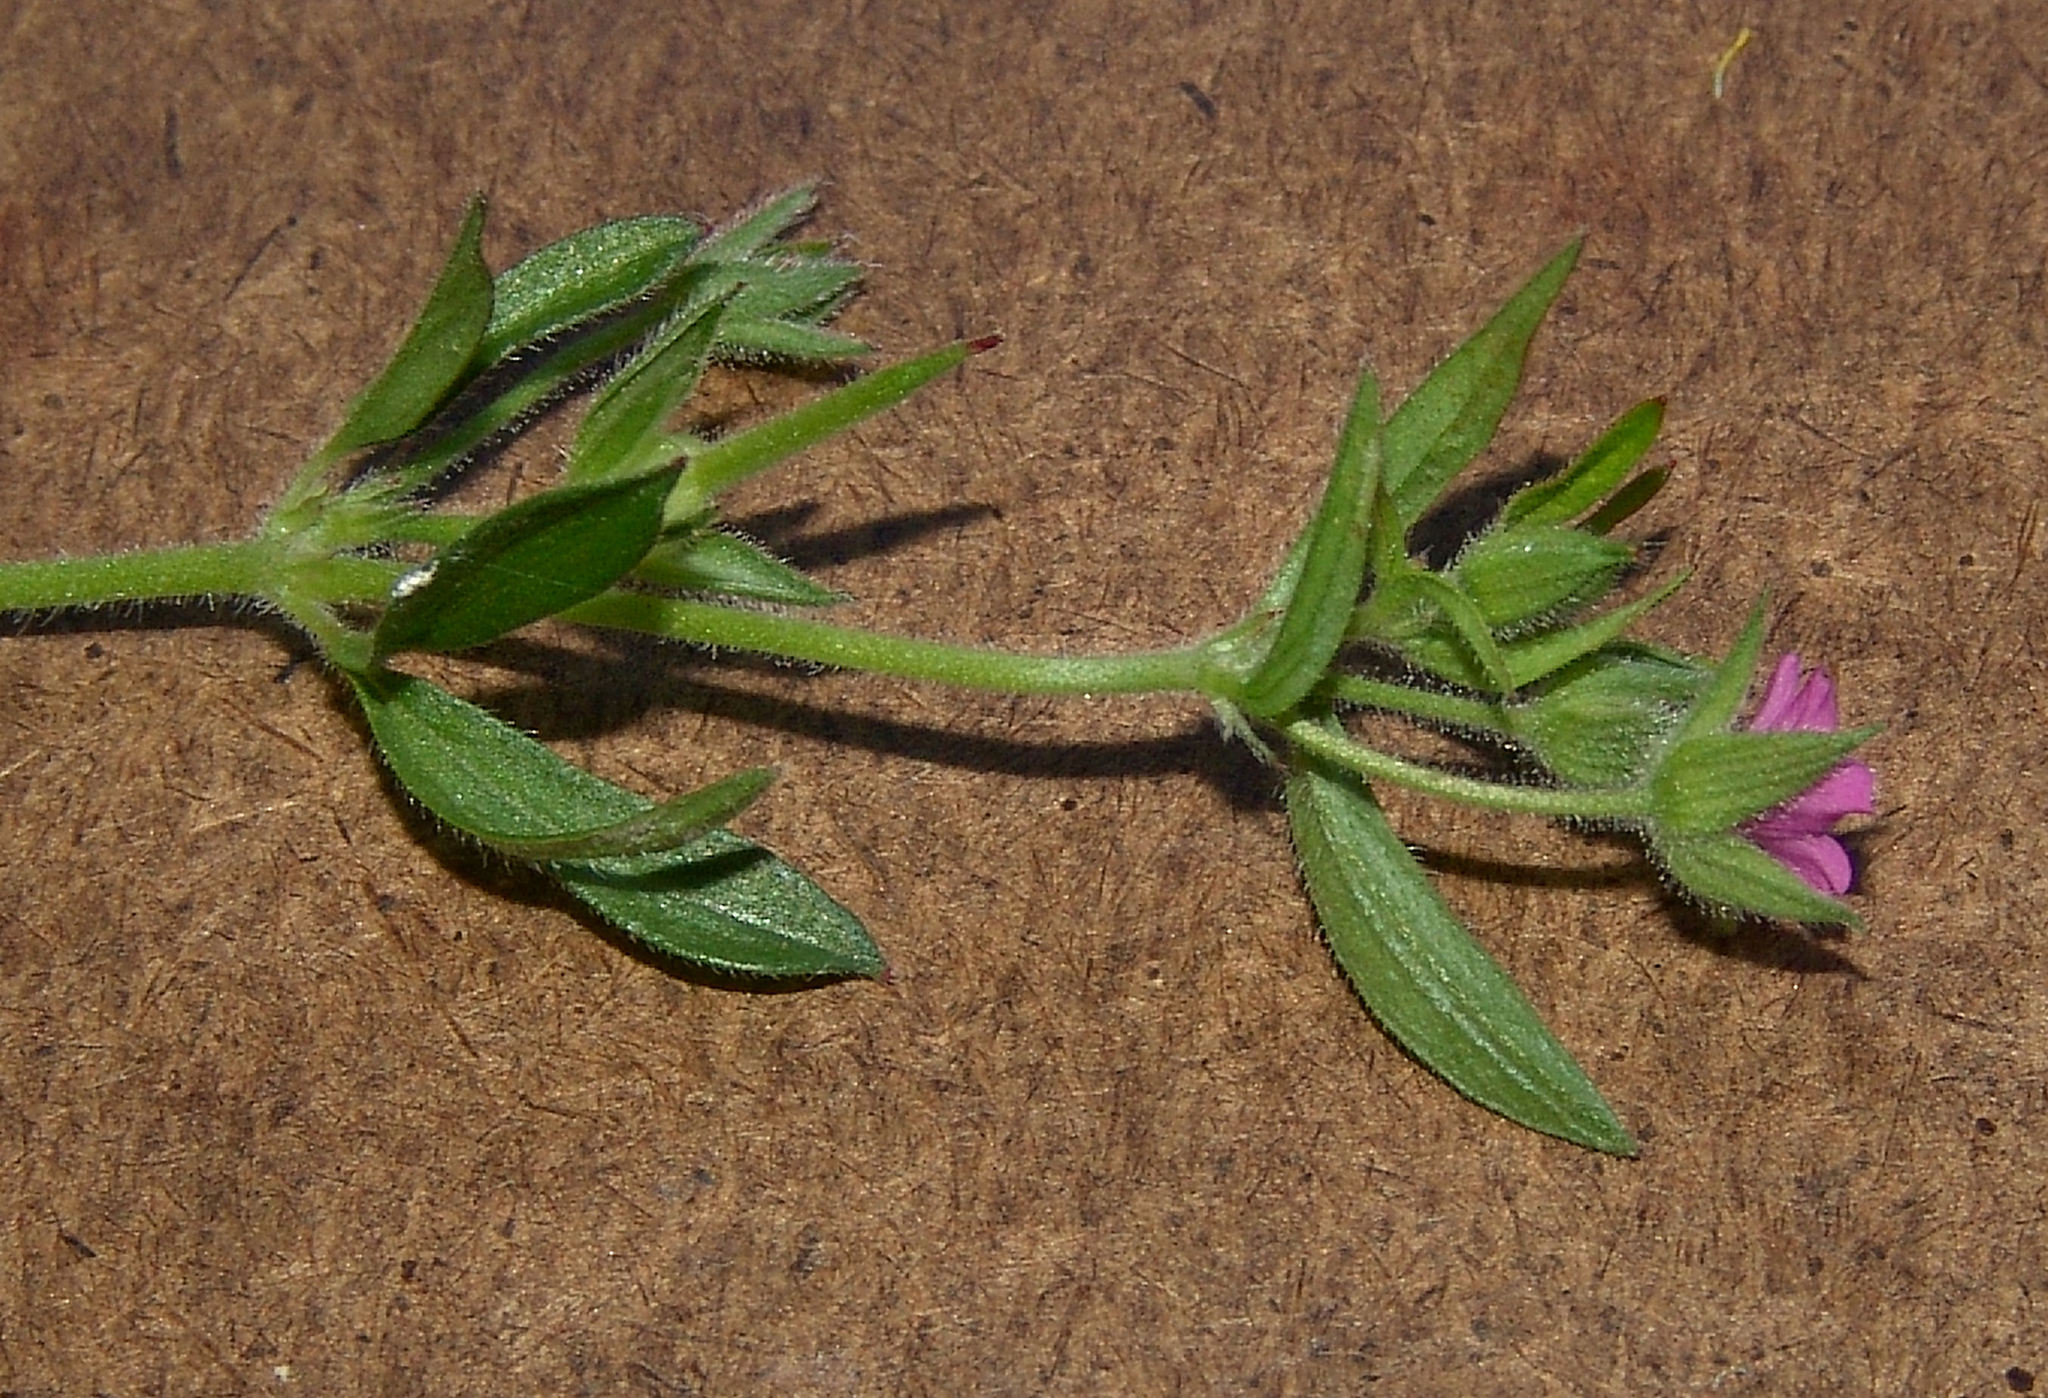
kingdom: Plantae
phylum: Tracheophyta
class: Magnoliopsida
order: Geraniales
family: Geraniaceae
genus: Geranium
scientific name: Geranium dissectum
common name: Cut-leaved crane's-bill
